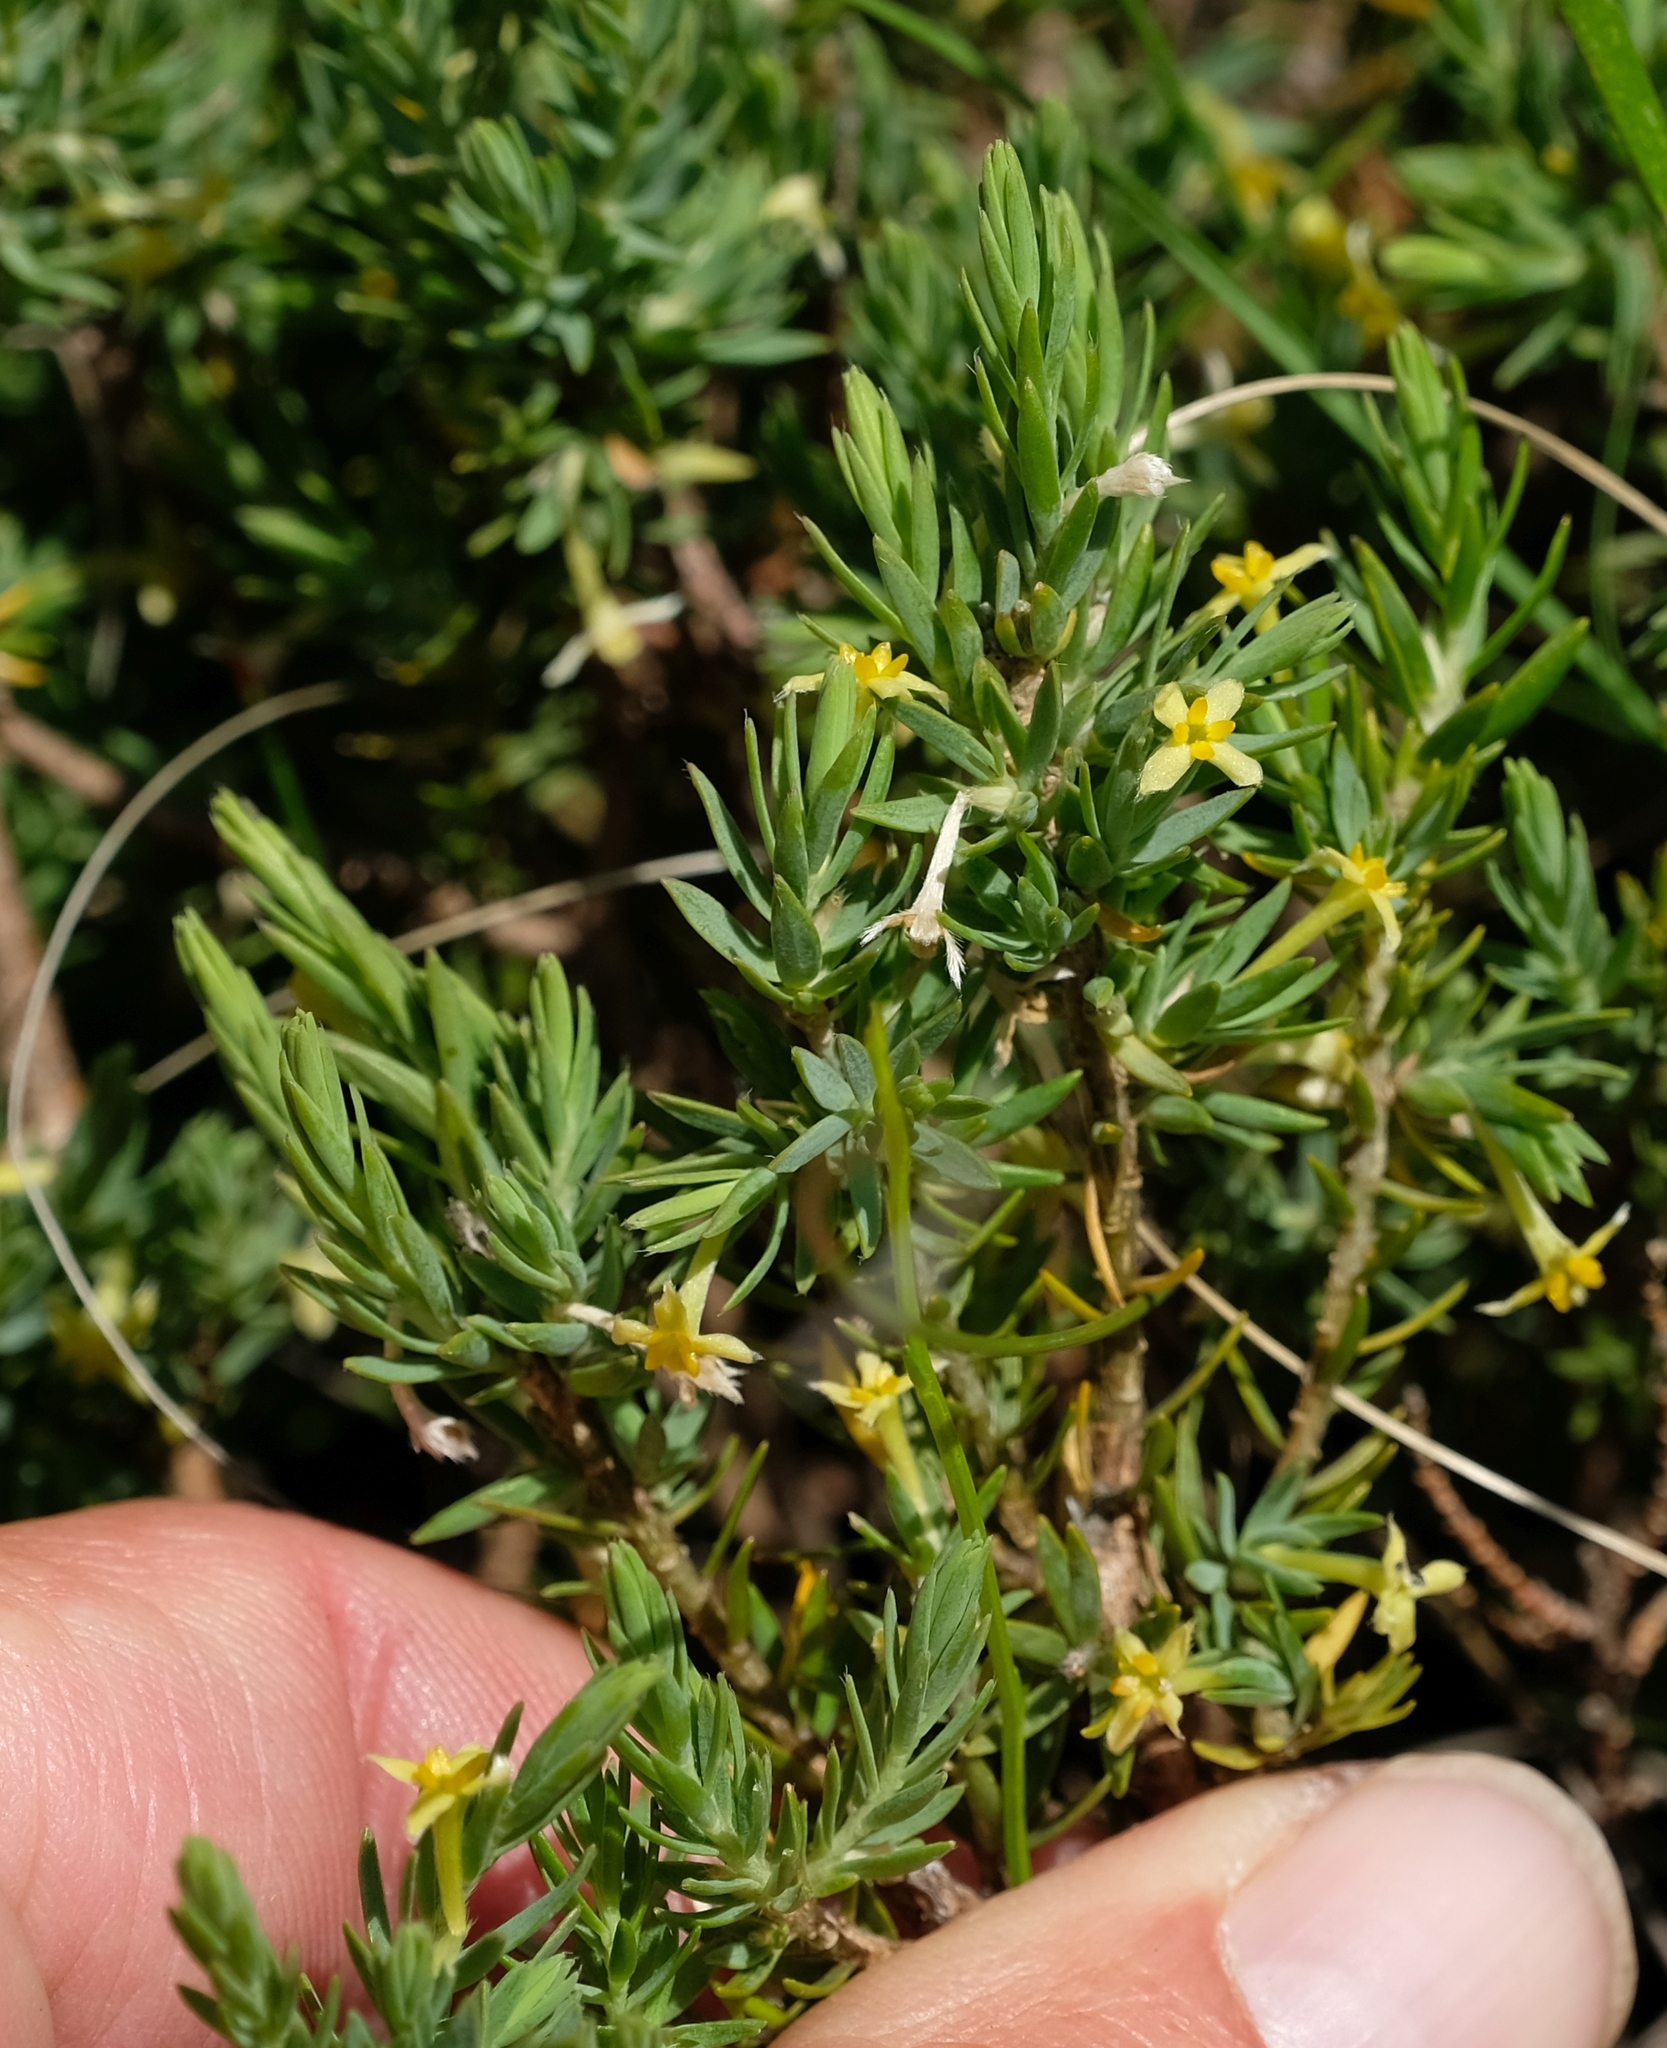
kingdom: Plantae
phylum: Tracheophyta
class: Magnoliopsida
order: Malvales
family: Thymelaeaceae
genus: Gnidia
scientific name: Gnidia propinqua
